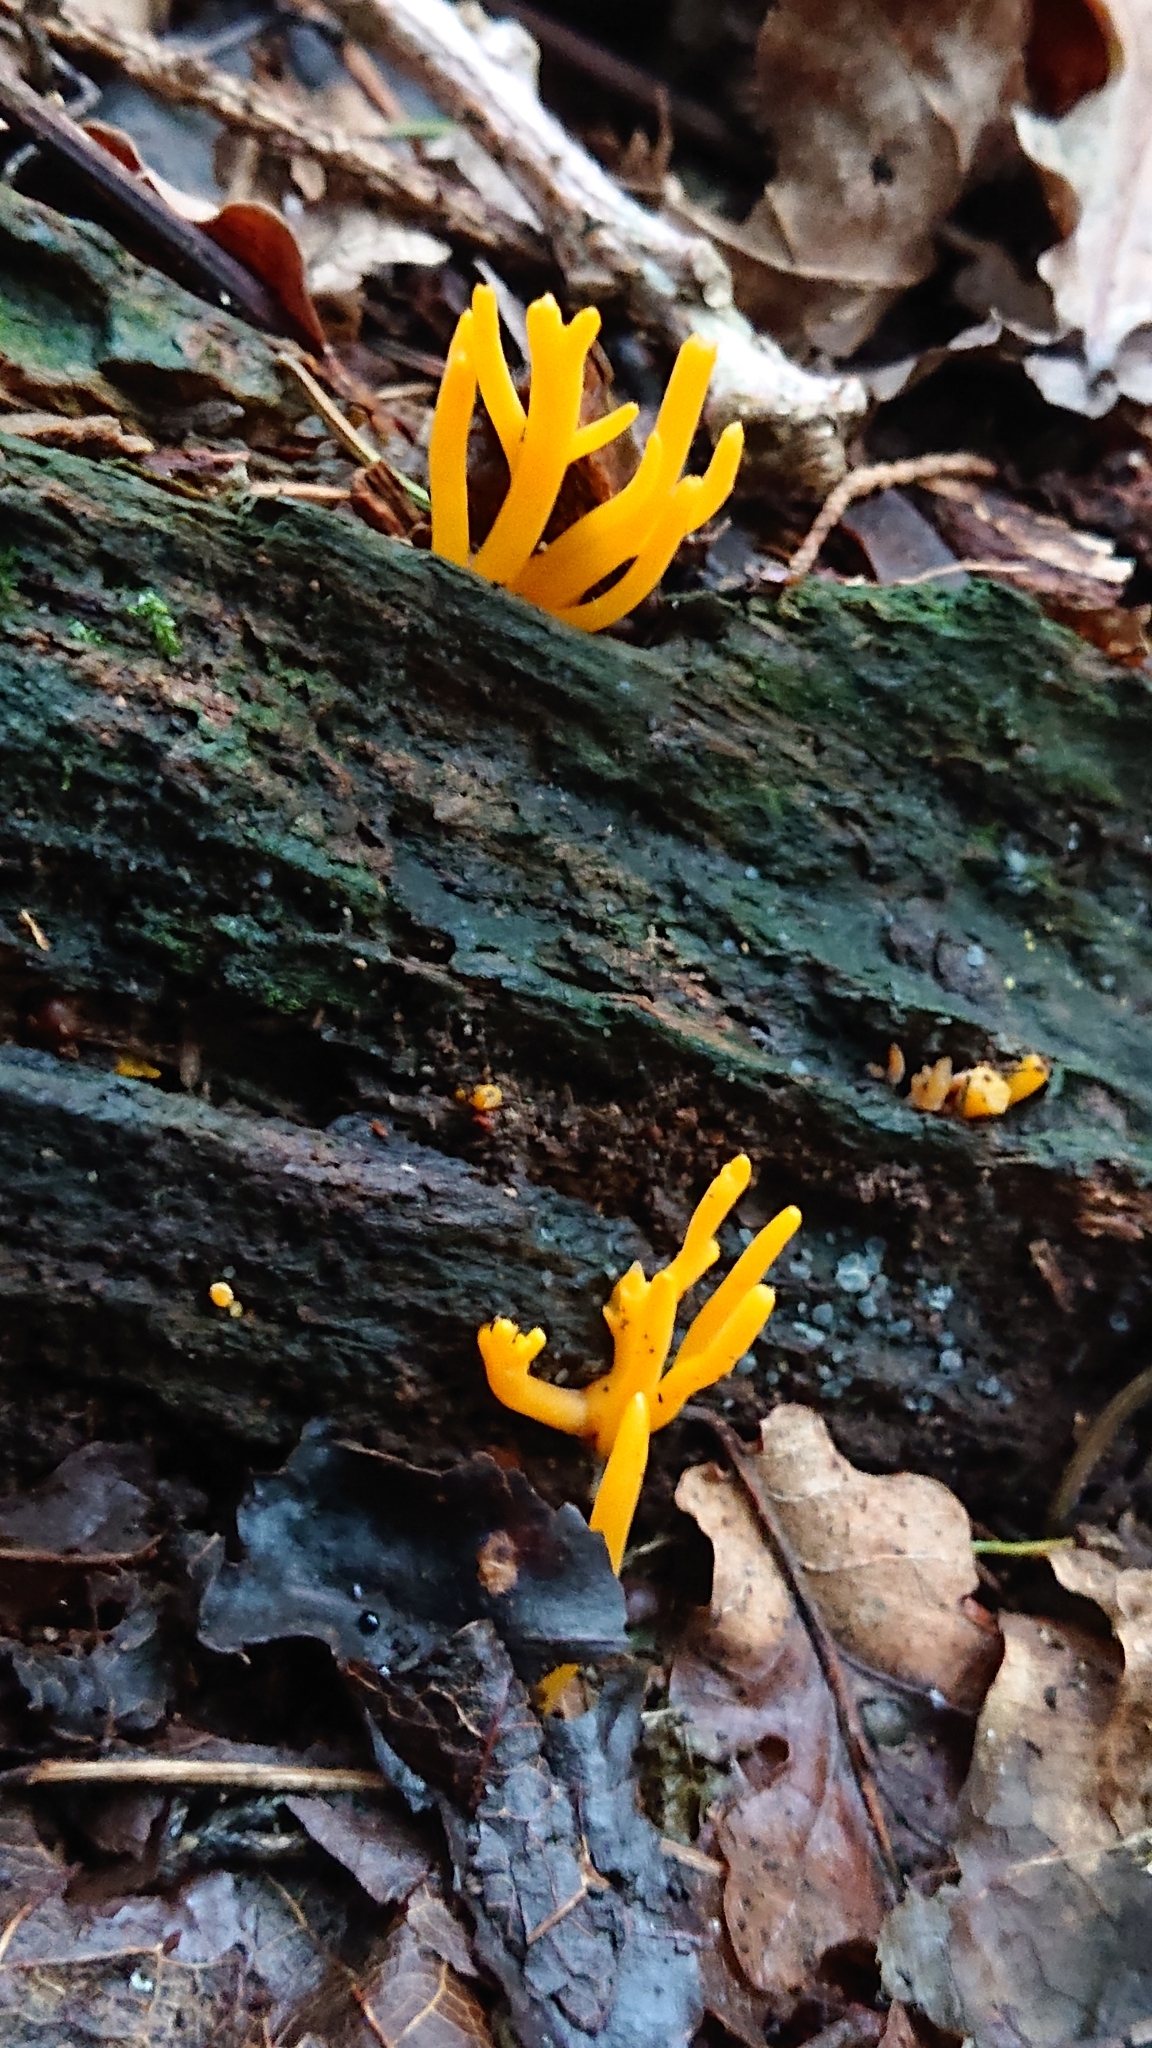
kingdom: Fungi
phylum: Basidiomycota
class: Dacrymycetes
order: Dacrymycetales
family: Dacrymycetaceae
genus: Calocera
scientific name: Calocera viscosa
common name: Yellow stagshorn
